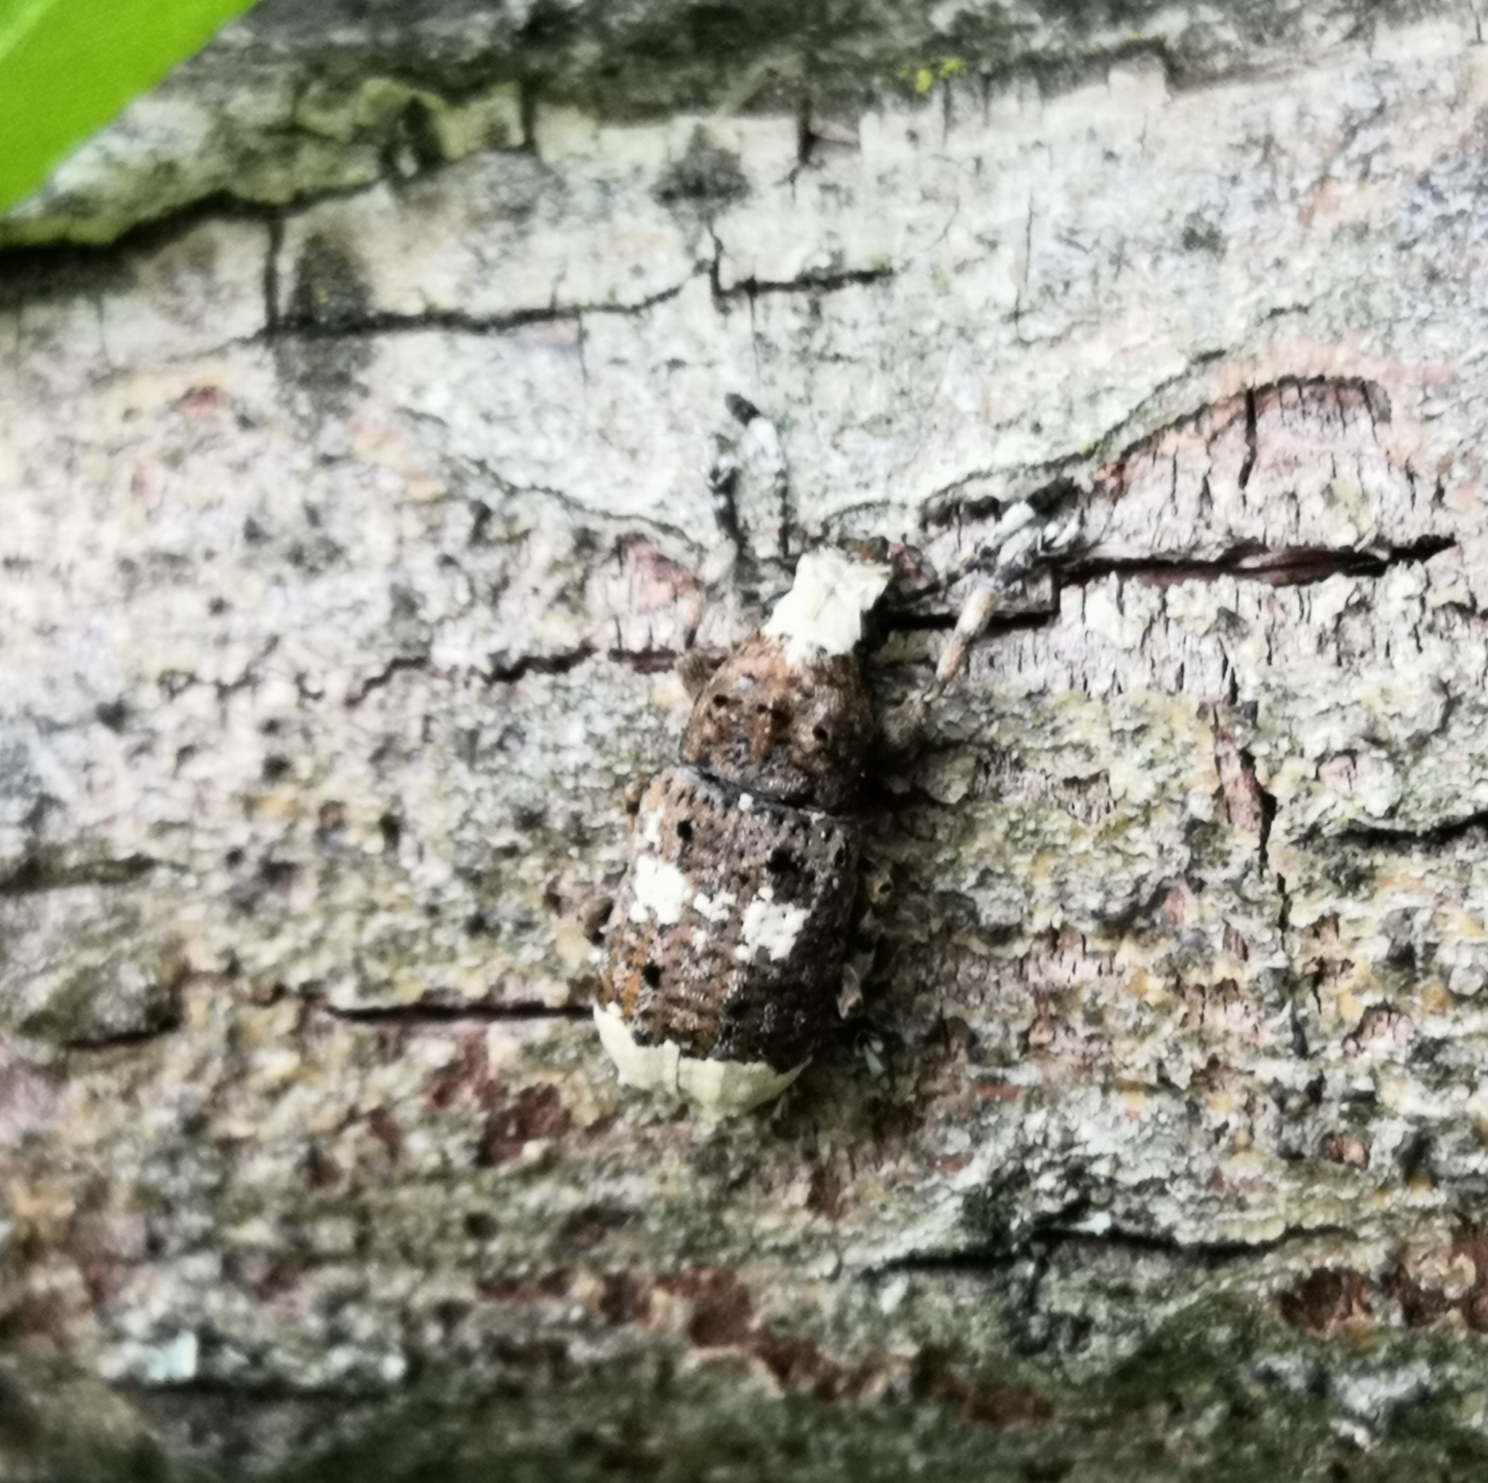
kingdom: Animalia
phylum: Arthropoda
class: Insecta
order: Coleoptera
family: Anthribidae
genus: Platystomos
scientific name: Platystomos albinus
